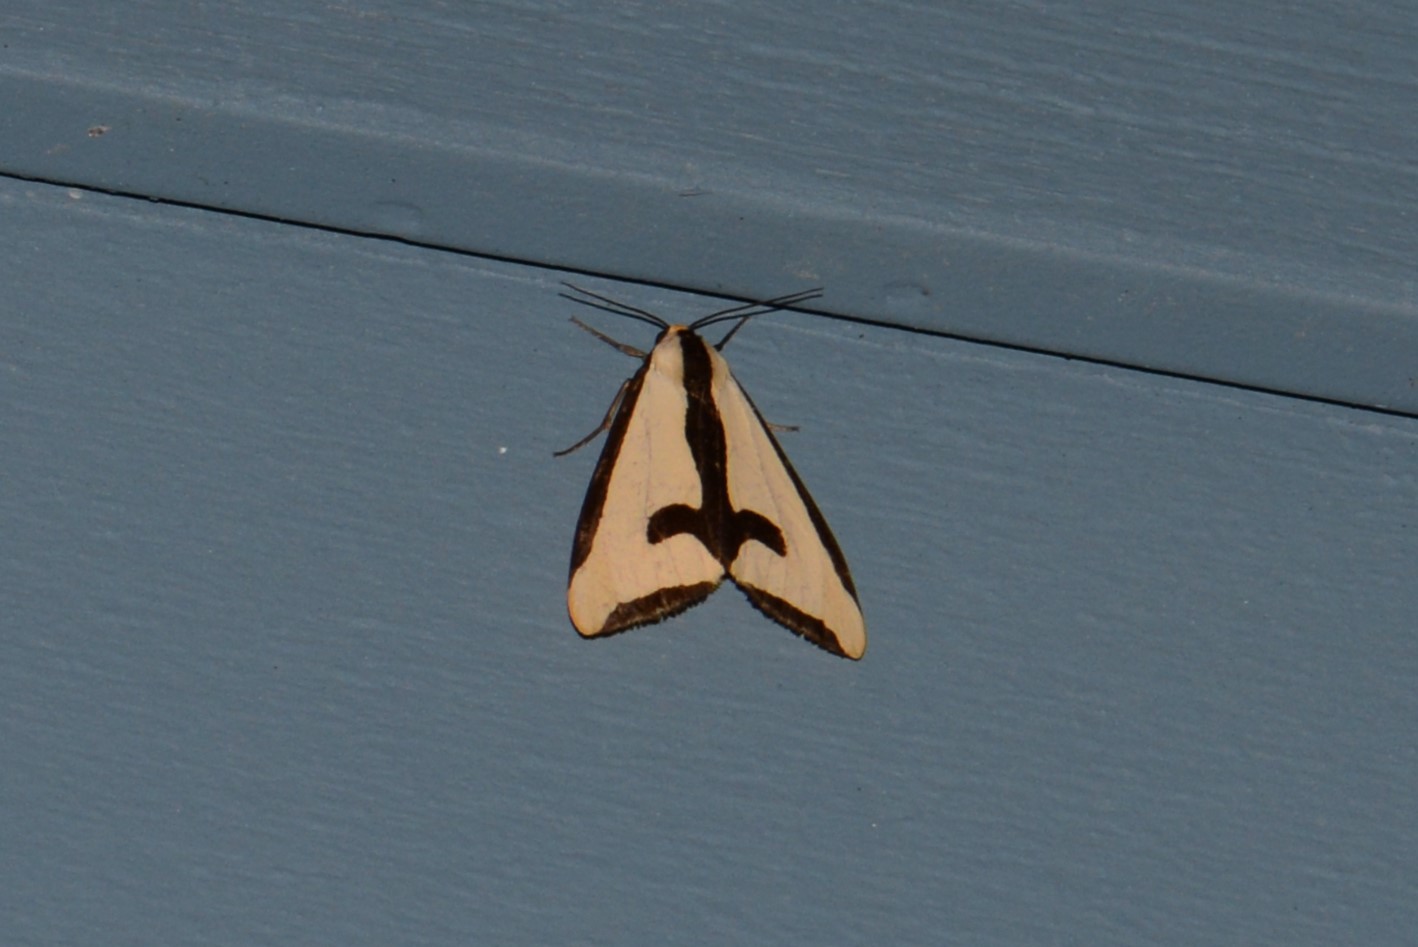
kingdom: Animalia
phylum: Arthropoda
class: Insecta
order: Lepidoptera
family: Erebidae
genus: Haploa
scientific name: Haploa clymene
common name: Clymene moth
